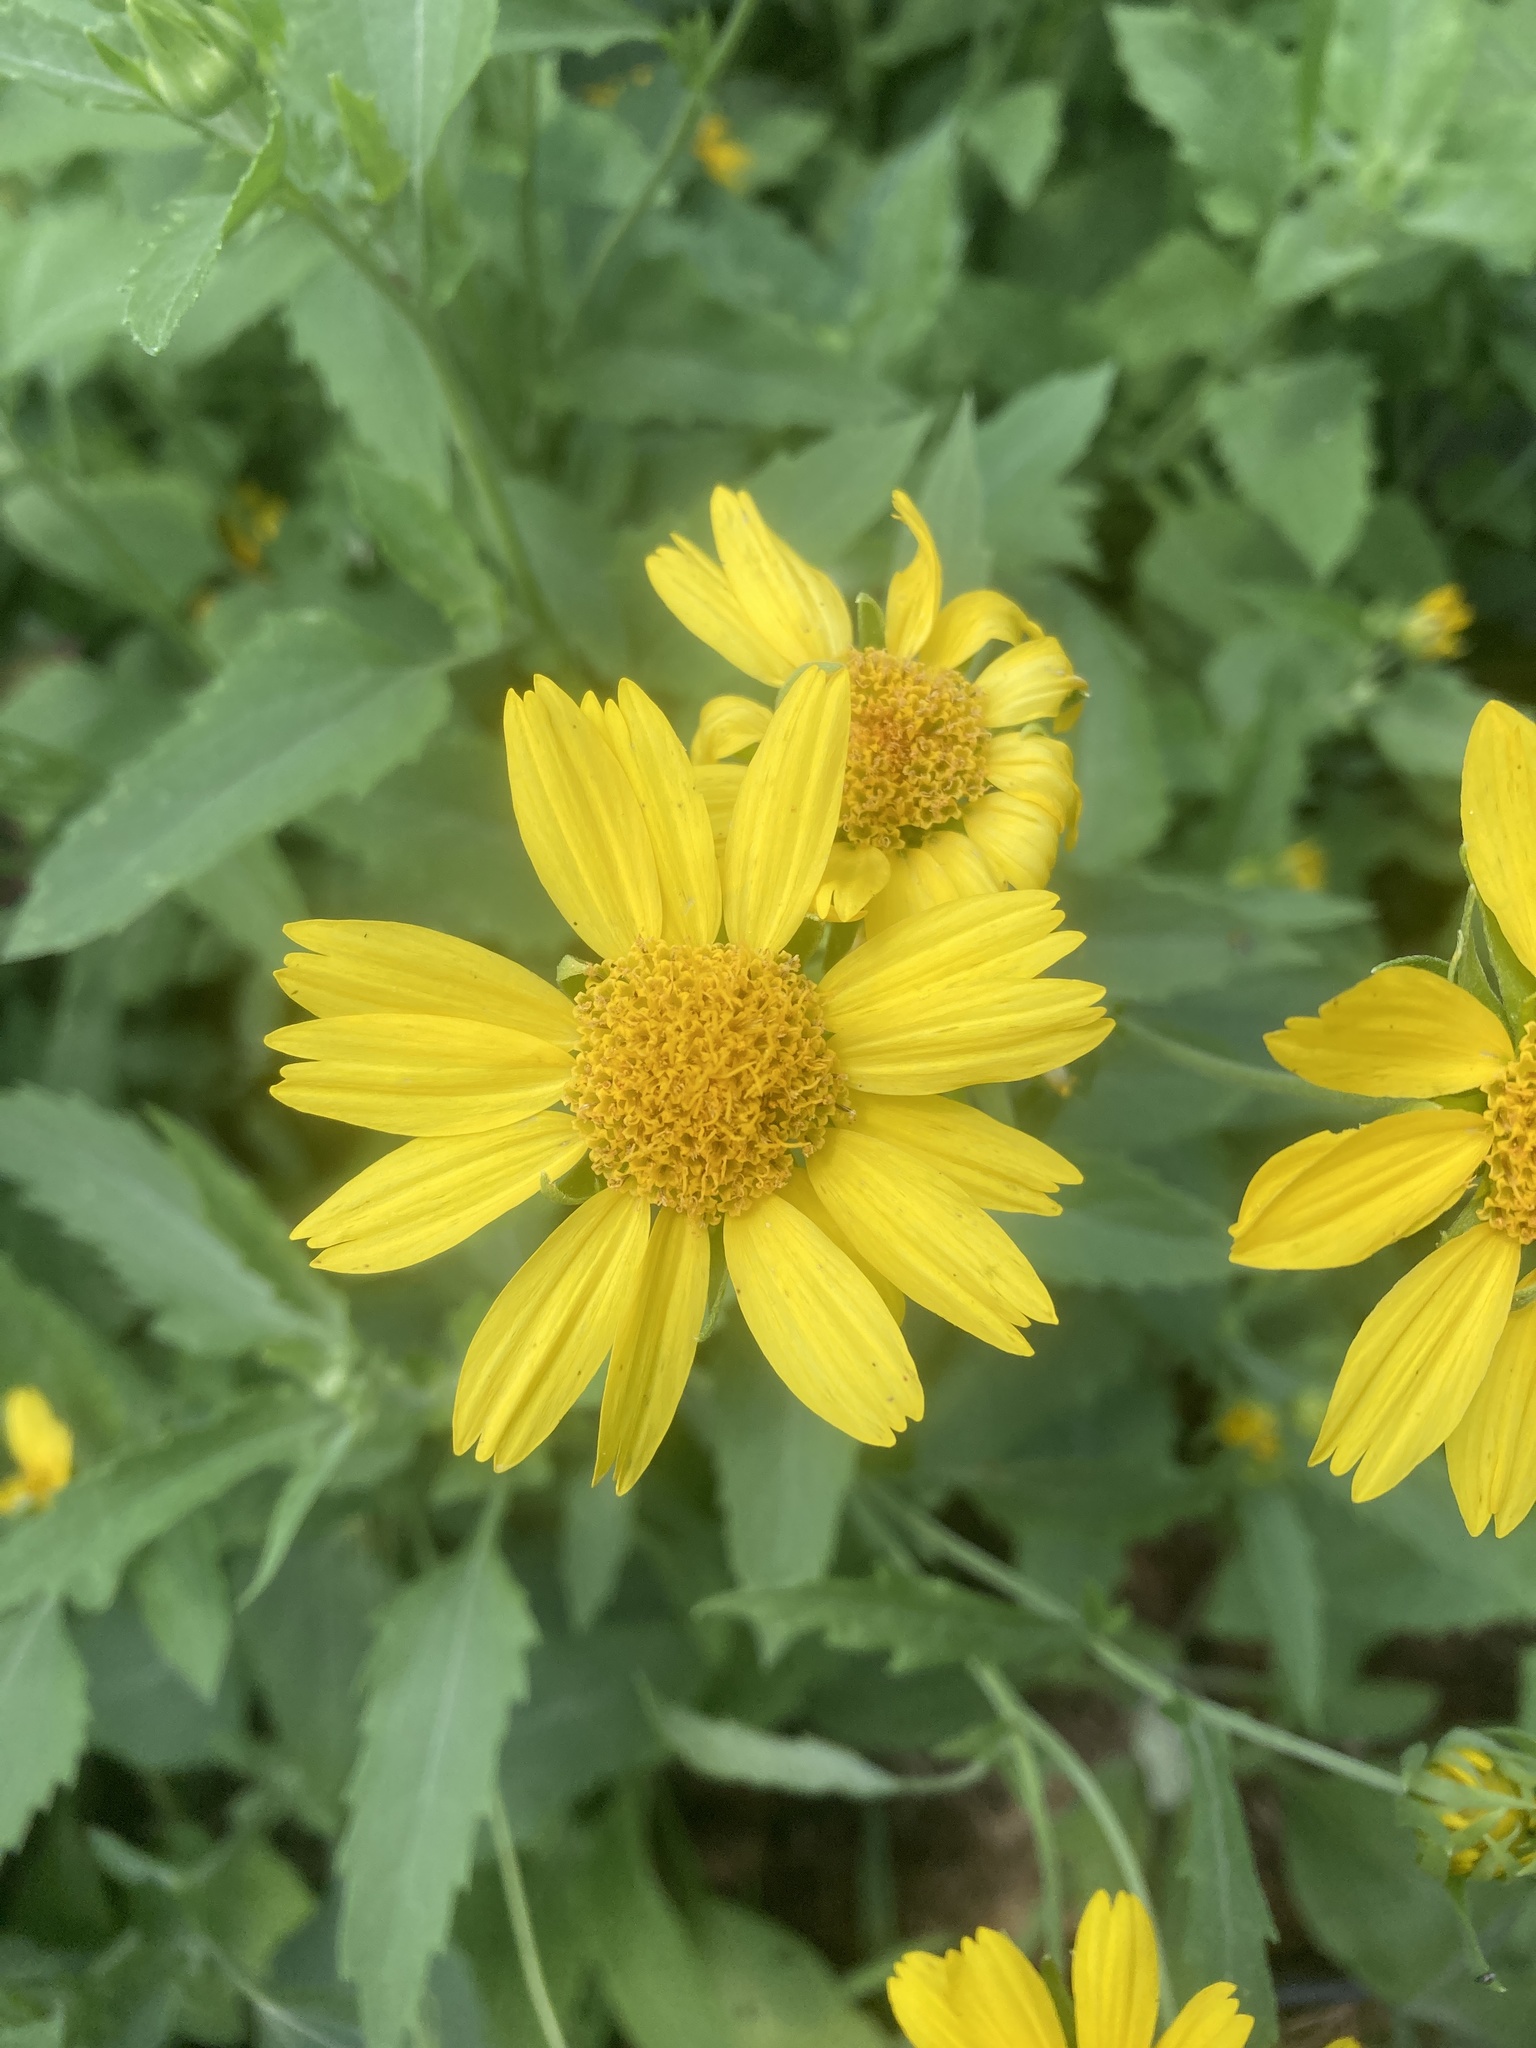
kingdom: Plantae
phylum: Tracheophyta
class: Magnoliopsida
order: Asterales
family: Asteraceae
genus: Verbesina
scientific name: Verbesina encelioides
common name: Golden crownbeard
